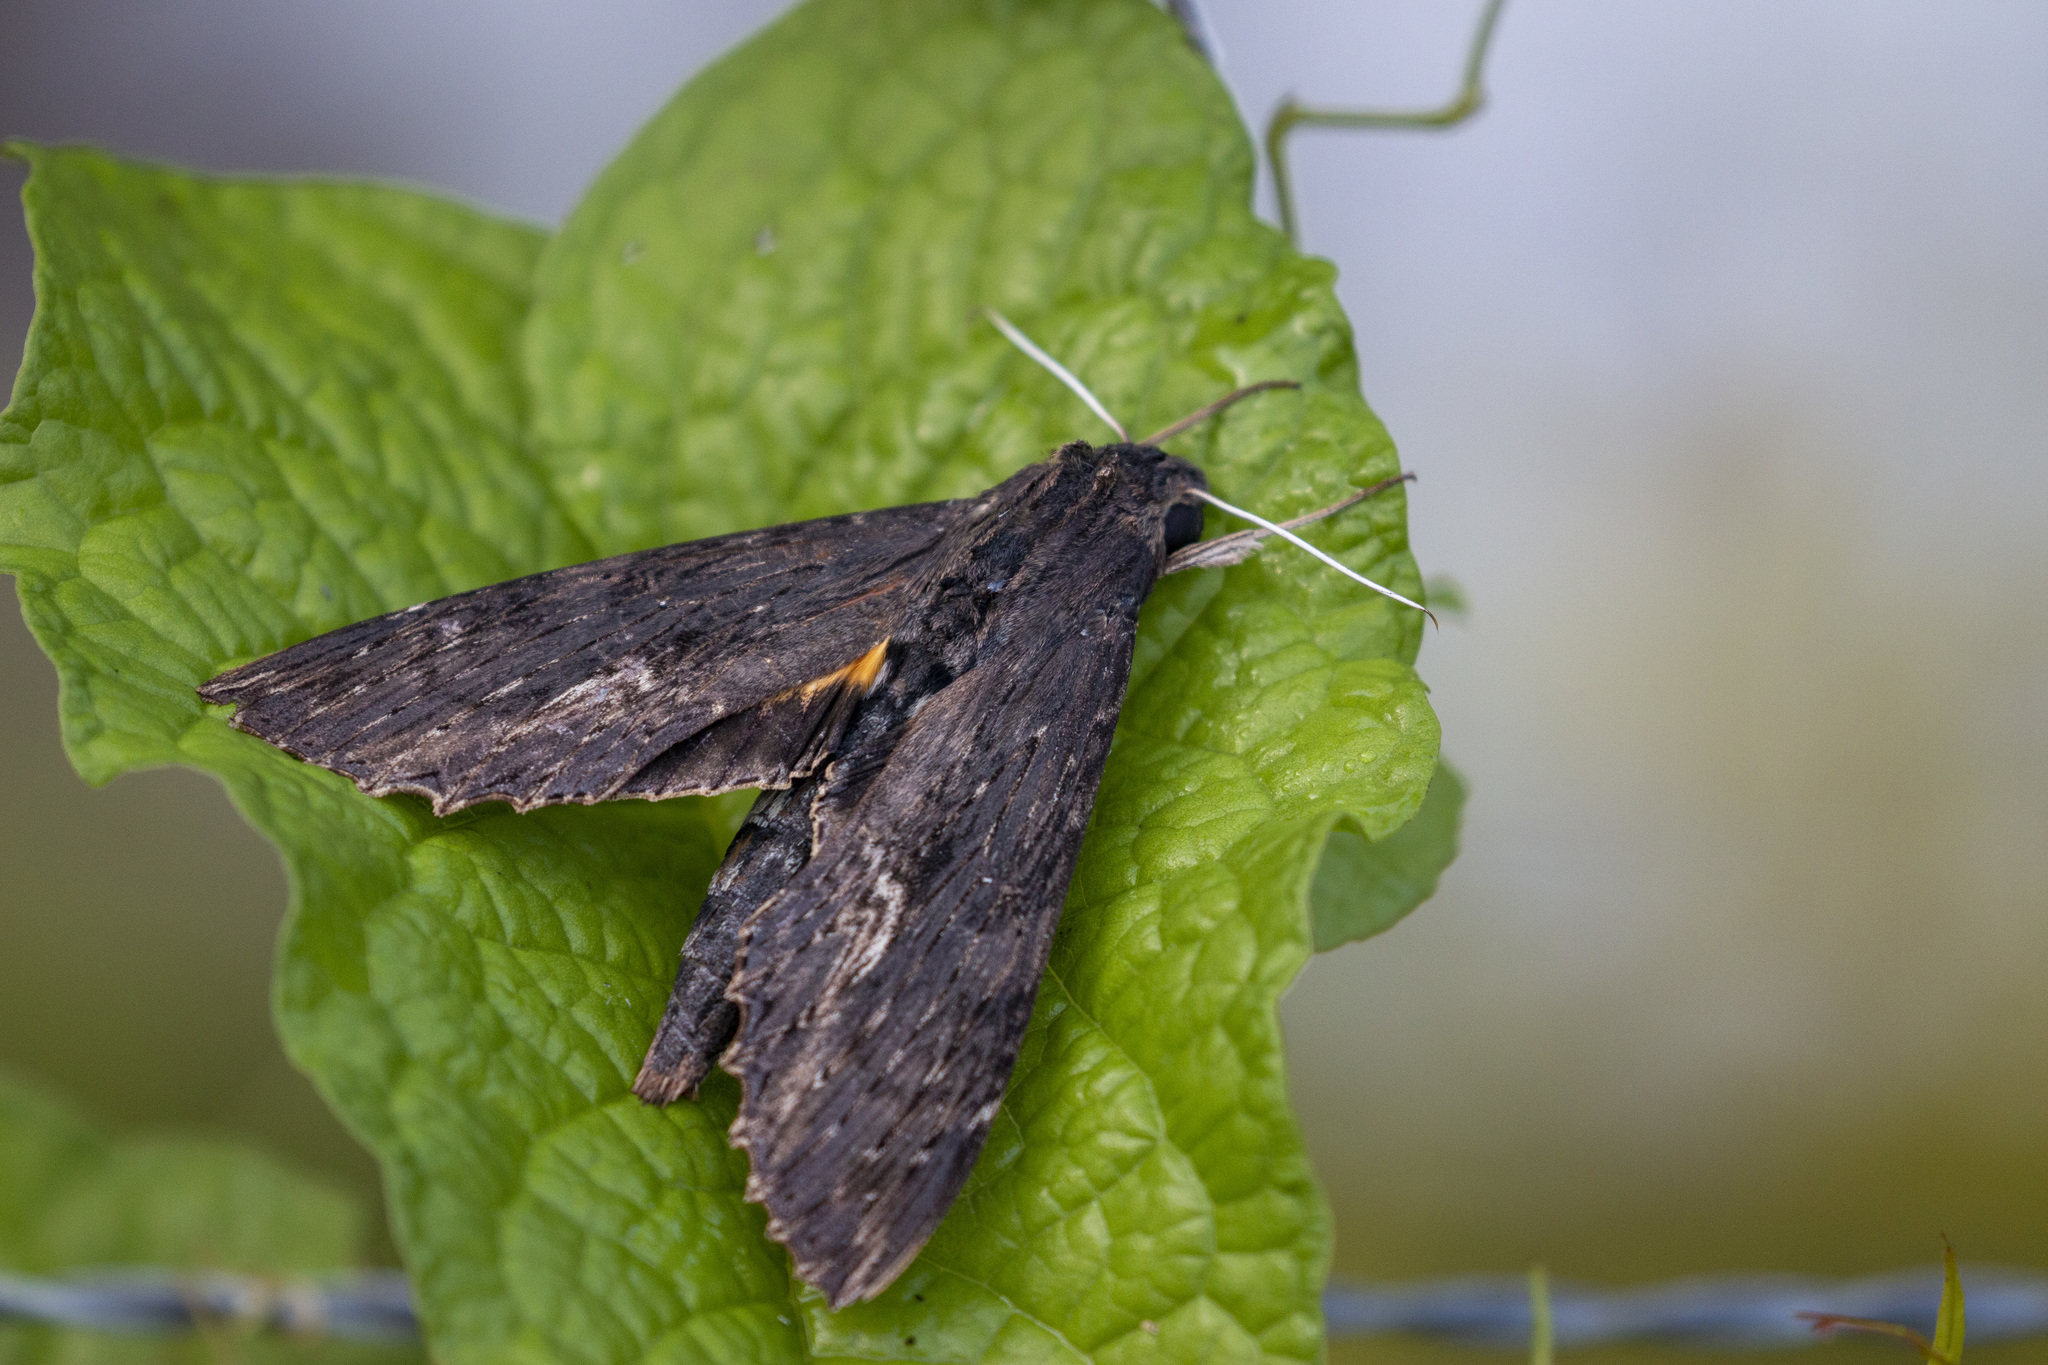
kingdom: Animalia
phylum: Arthropoda
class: Insecta
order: Lepidoptera
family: Sphingidae
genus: Erinnyis
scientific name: Erinnyis alope
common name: Alope sphinx
